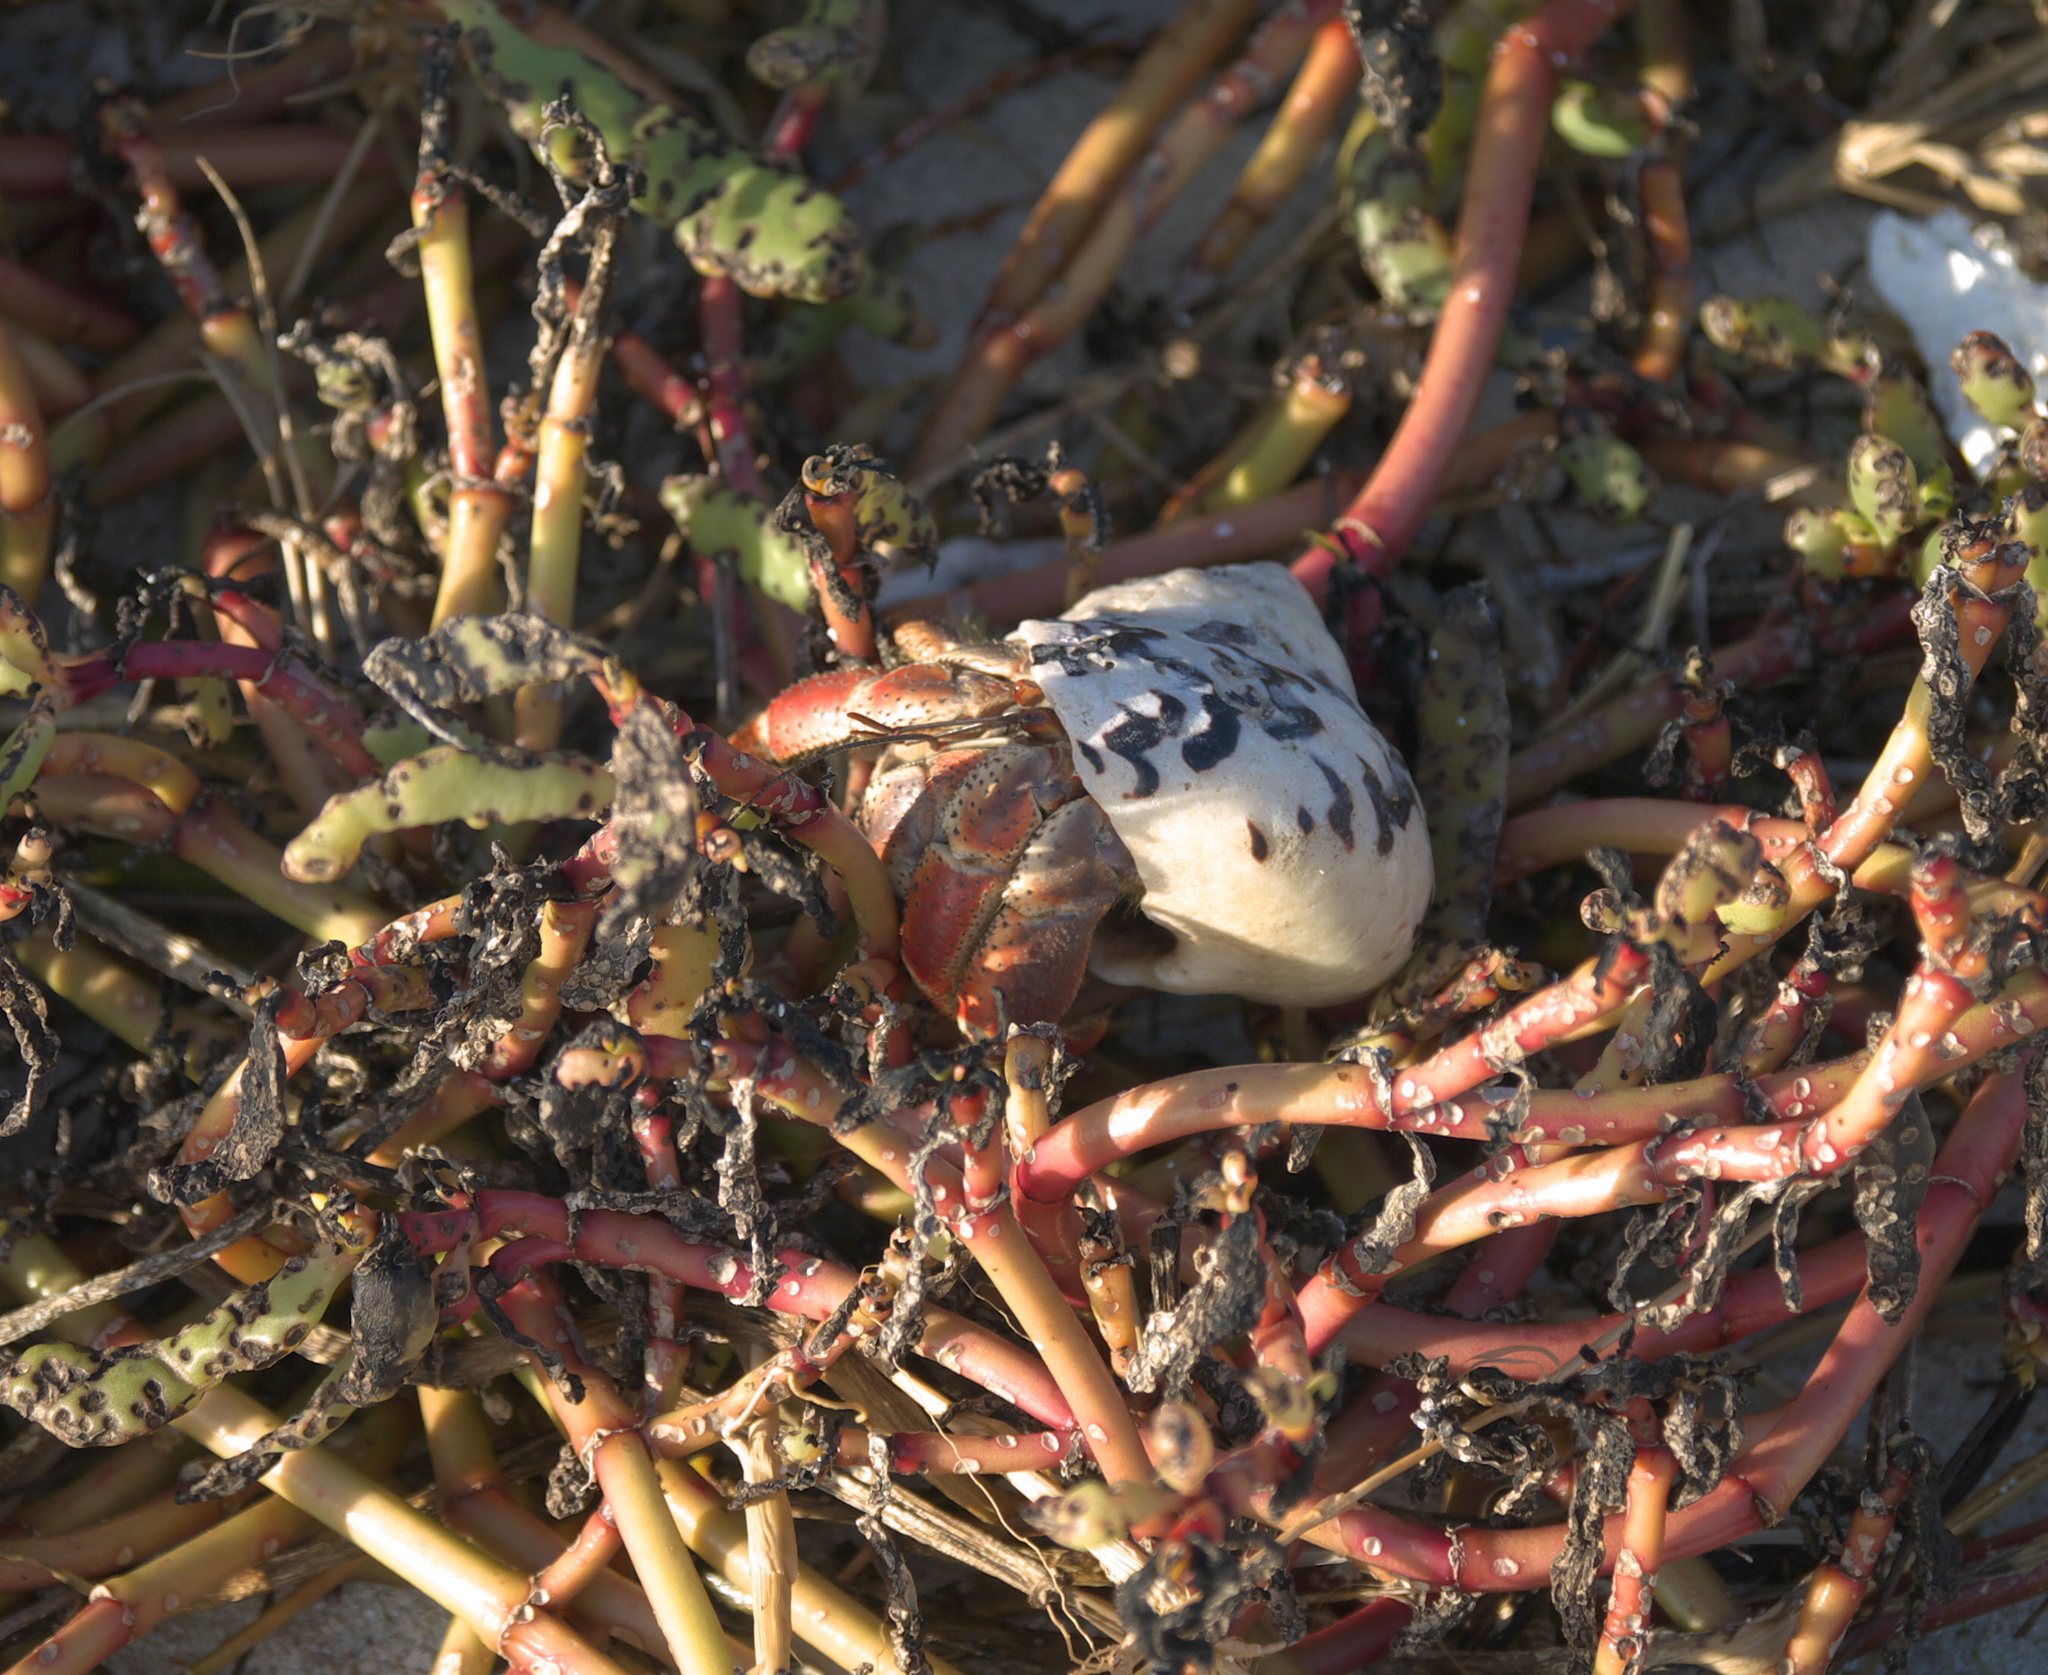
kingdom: Animalia
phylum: Arthropoda
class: Malacostraca
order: Decapoda
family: Coenobitidae
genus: Coenobita
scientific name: Coenobita clypeatus
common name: Caribbean hermit crab
